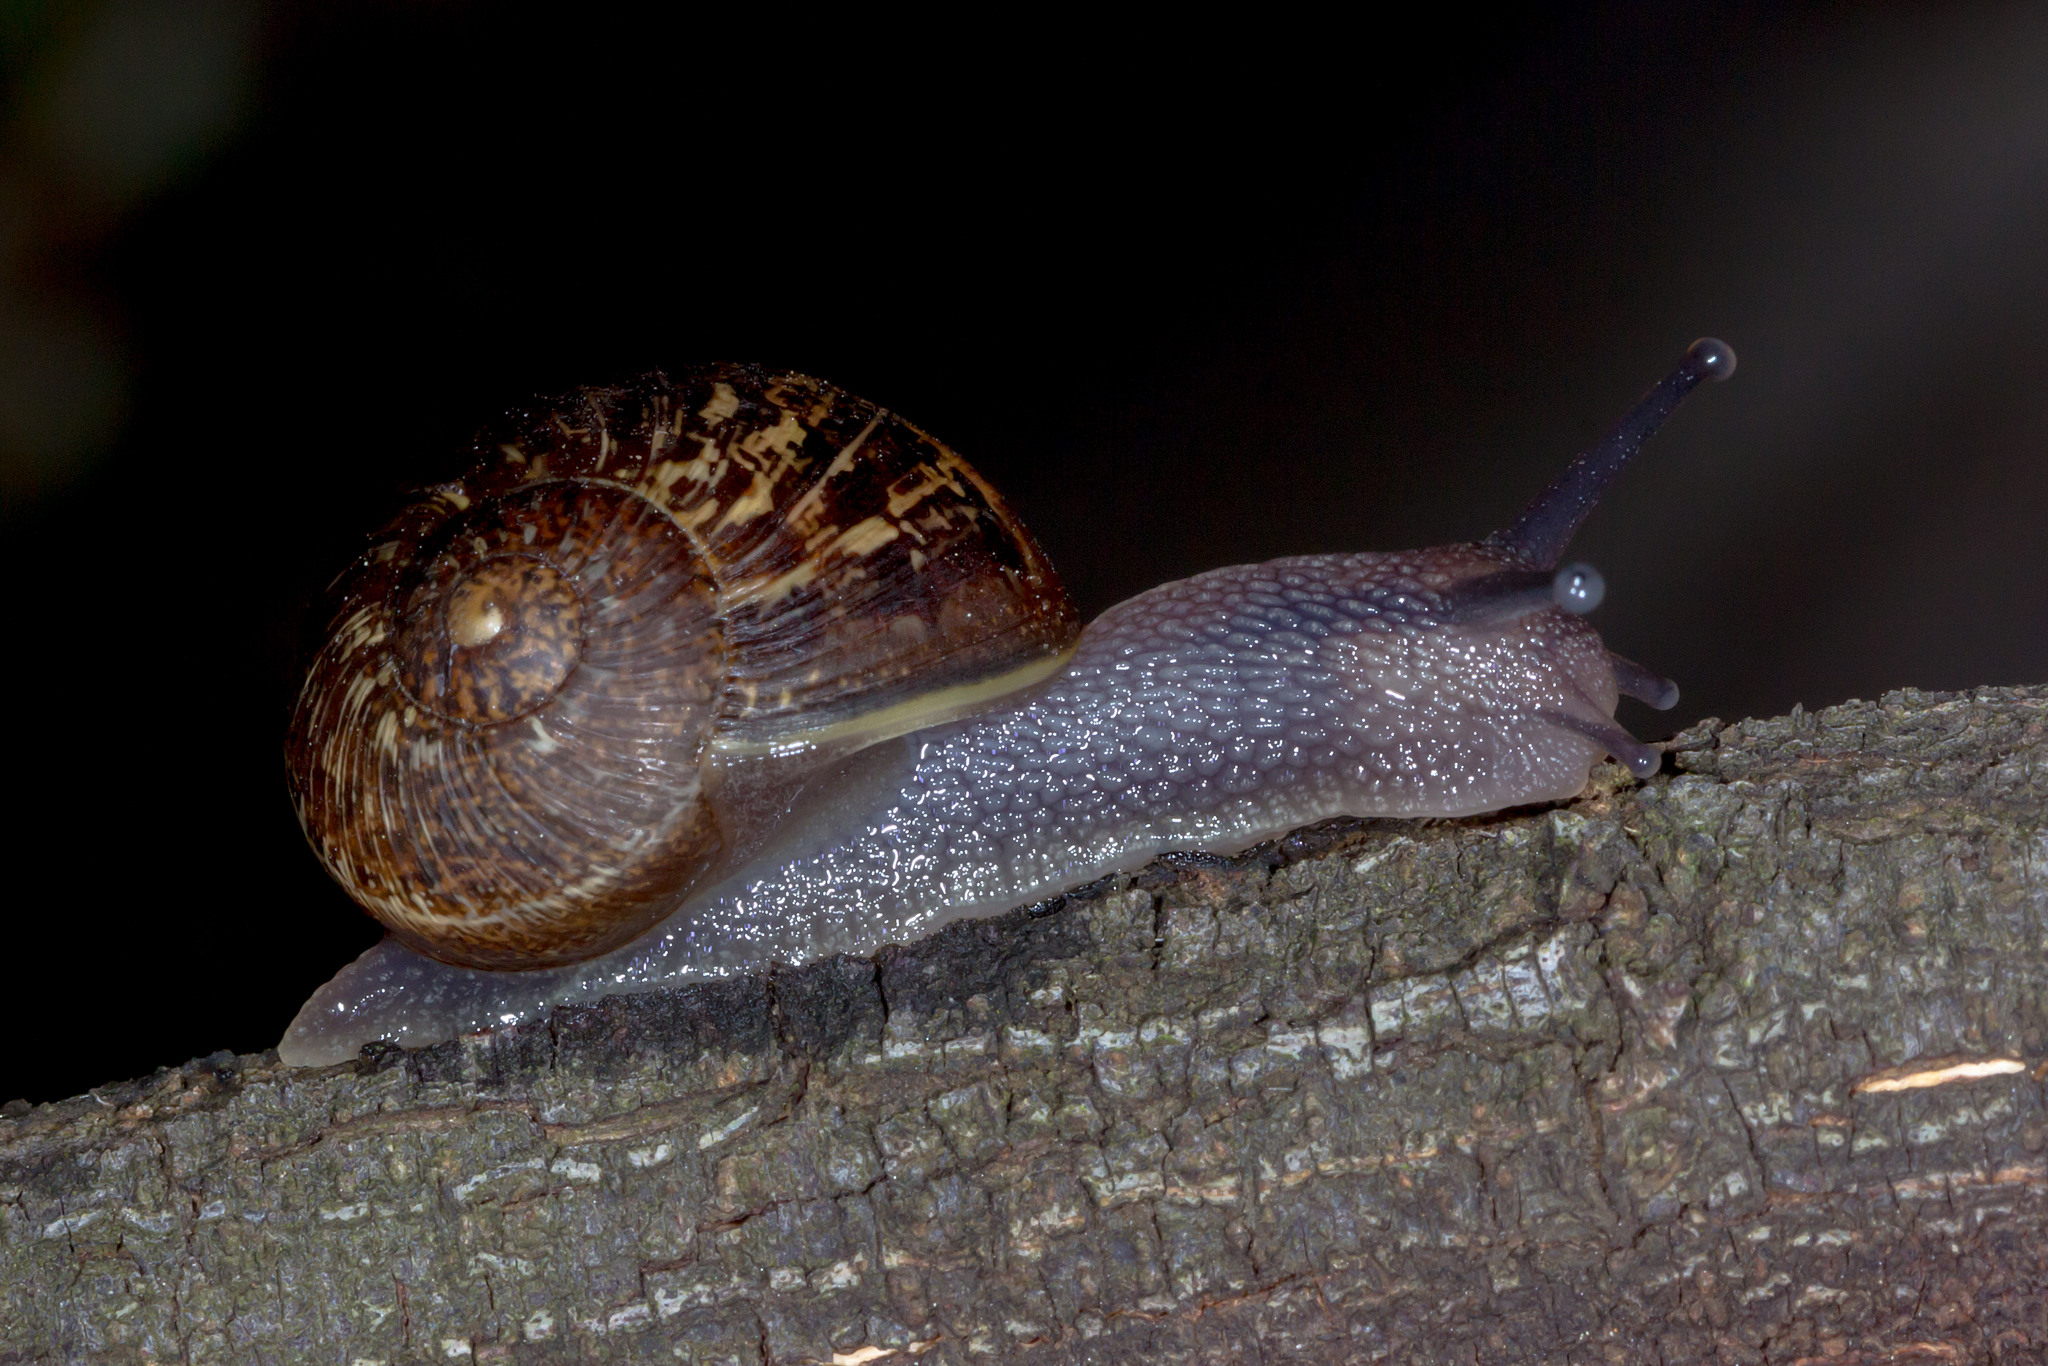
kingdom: Animalia
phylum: Mollusca
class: Gastropoda
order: Stylommatophora
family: Helicidae
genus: Cornu
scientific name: Cornu aspersum
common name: Brown garden snail
